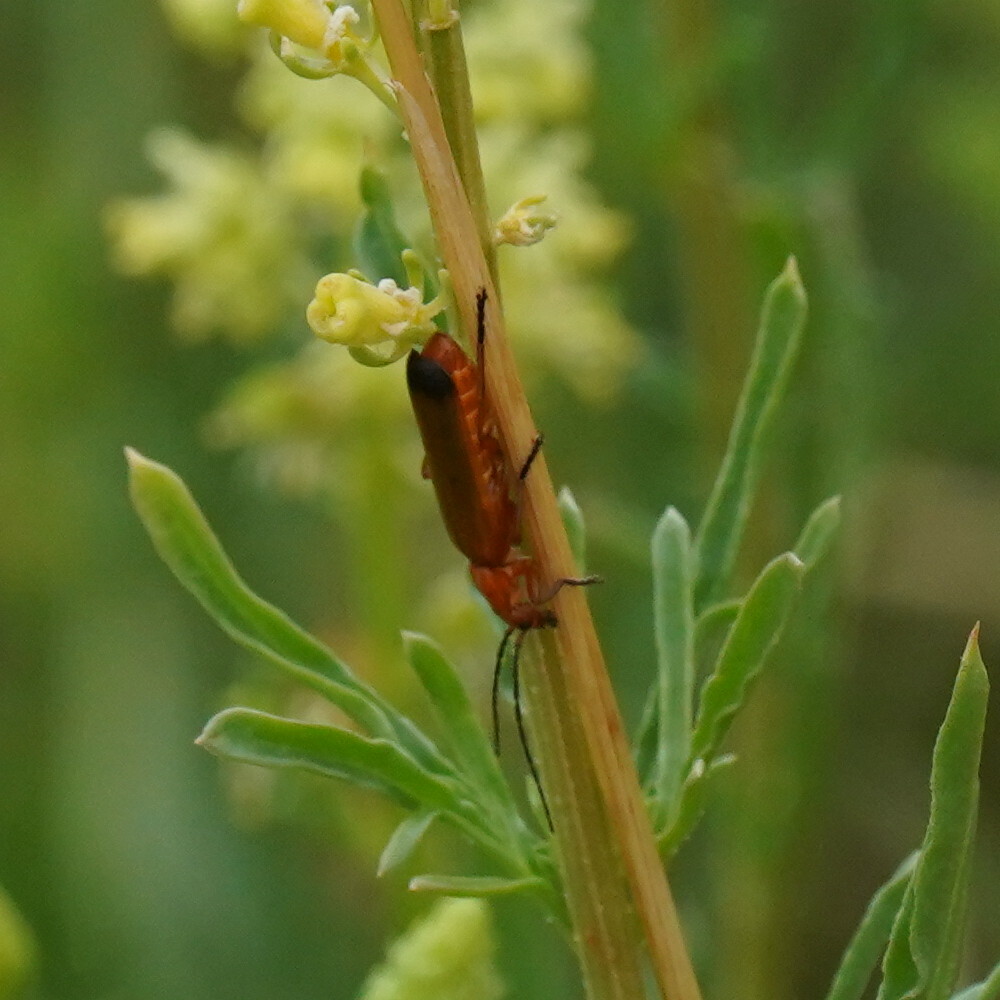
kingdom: Animalia
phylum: Arthropoda
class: Insecta
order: Coleoptera
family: Cantharidae
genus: Rhagonycha
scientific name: Rhagonycha fulva
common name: Common red soldier beetle
